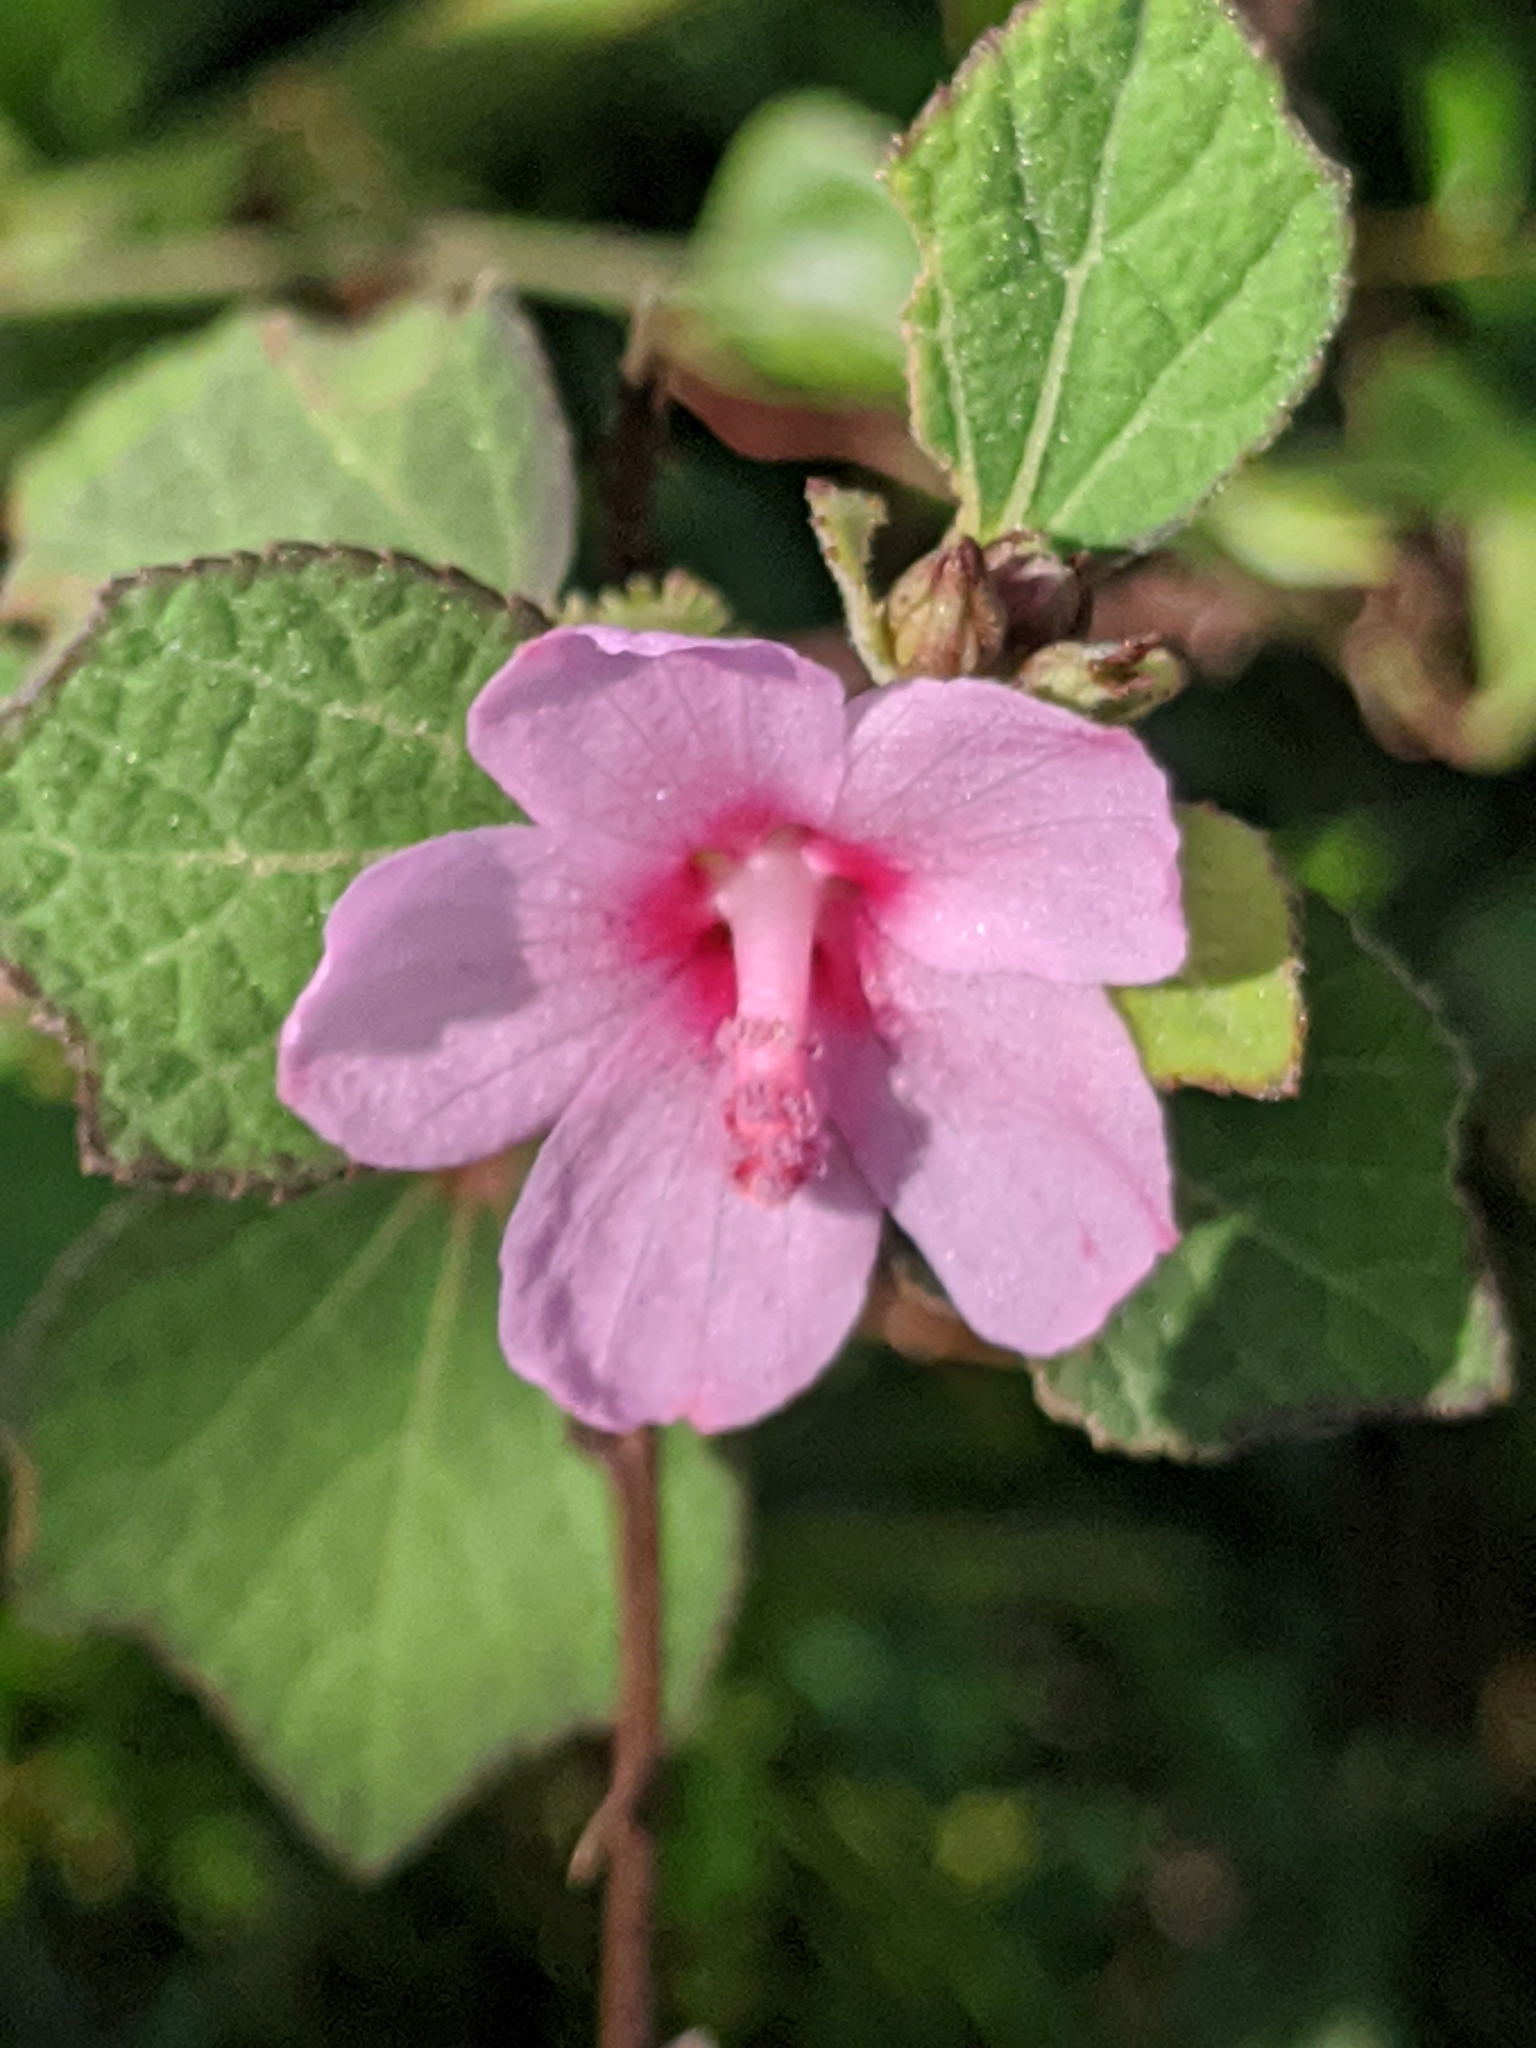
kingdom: Plantae
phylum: Tracheophyta
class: Magnoliopsida
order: Malvales
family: Malvaceae
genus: Urena
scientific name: Urena lobata
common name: Caesarweed
